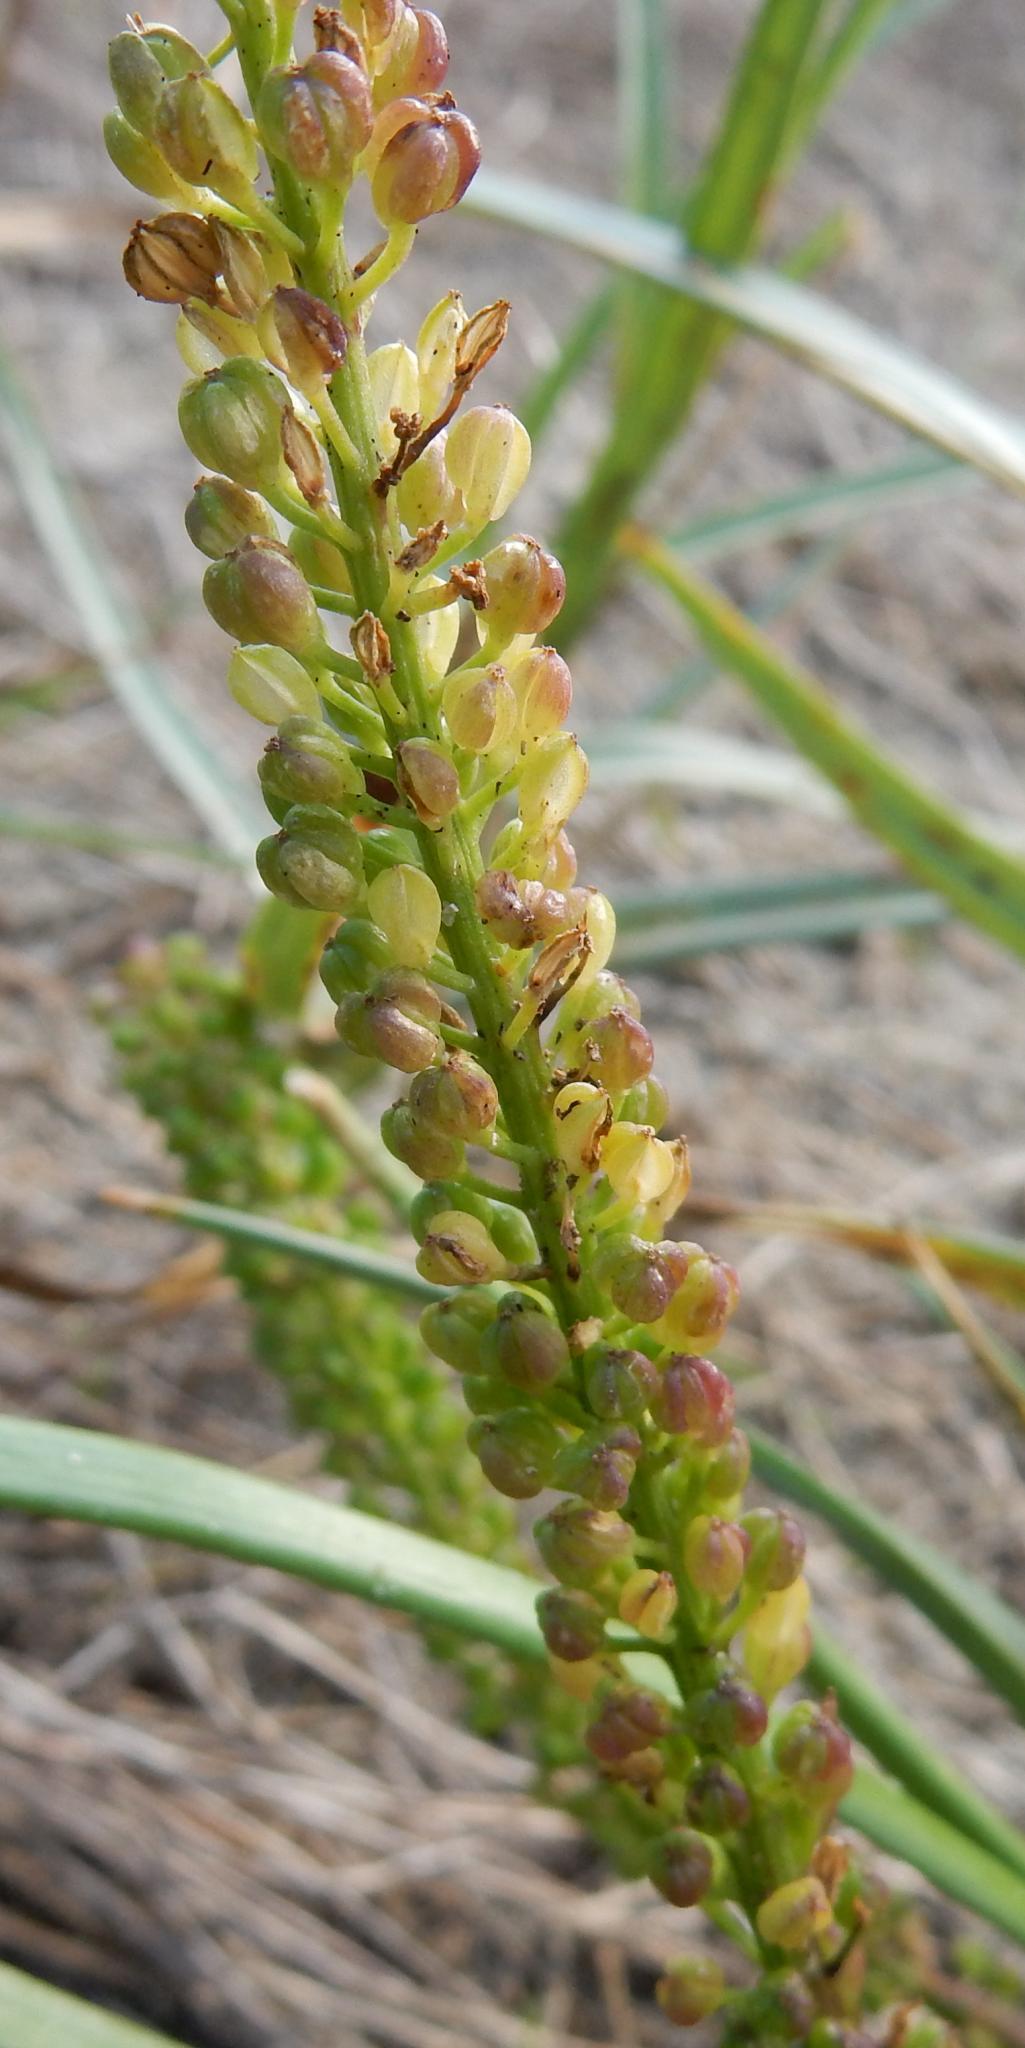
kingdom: Plantae
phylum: Tracheophyta
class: Liliopsida
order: Alismatales
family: Juncaginaceae
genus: Triglochin
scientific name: Triglochin striata
